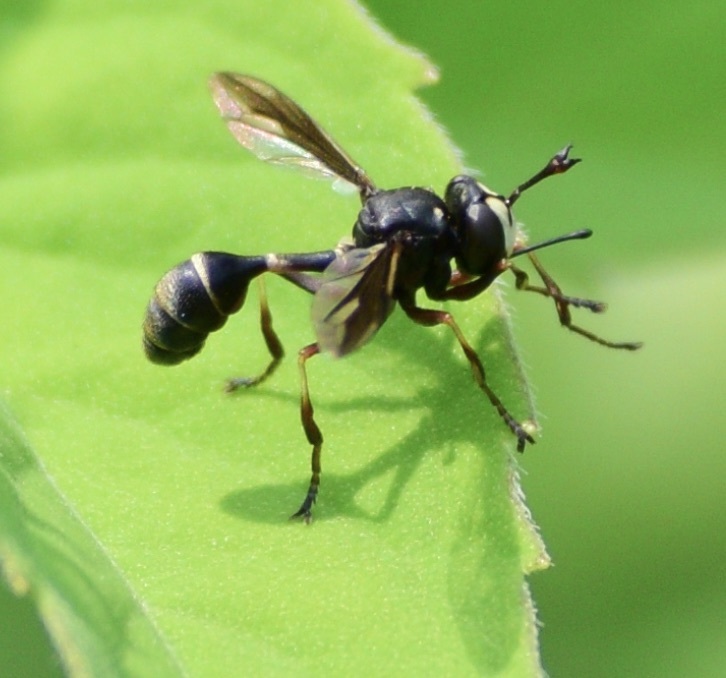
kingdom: Animalia
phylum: Arthropoda
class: Insecta
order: Diptera
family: Conopidae
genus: Physocephala
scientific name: Physocephala furcillata
